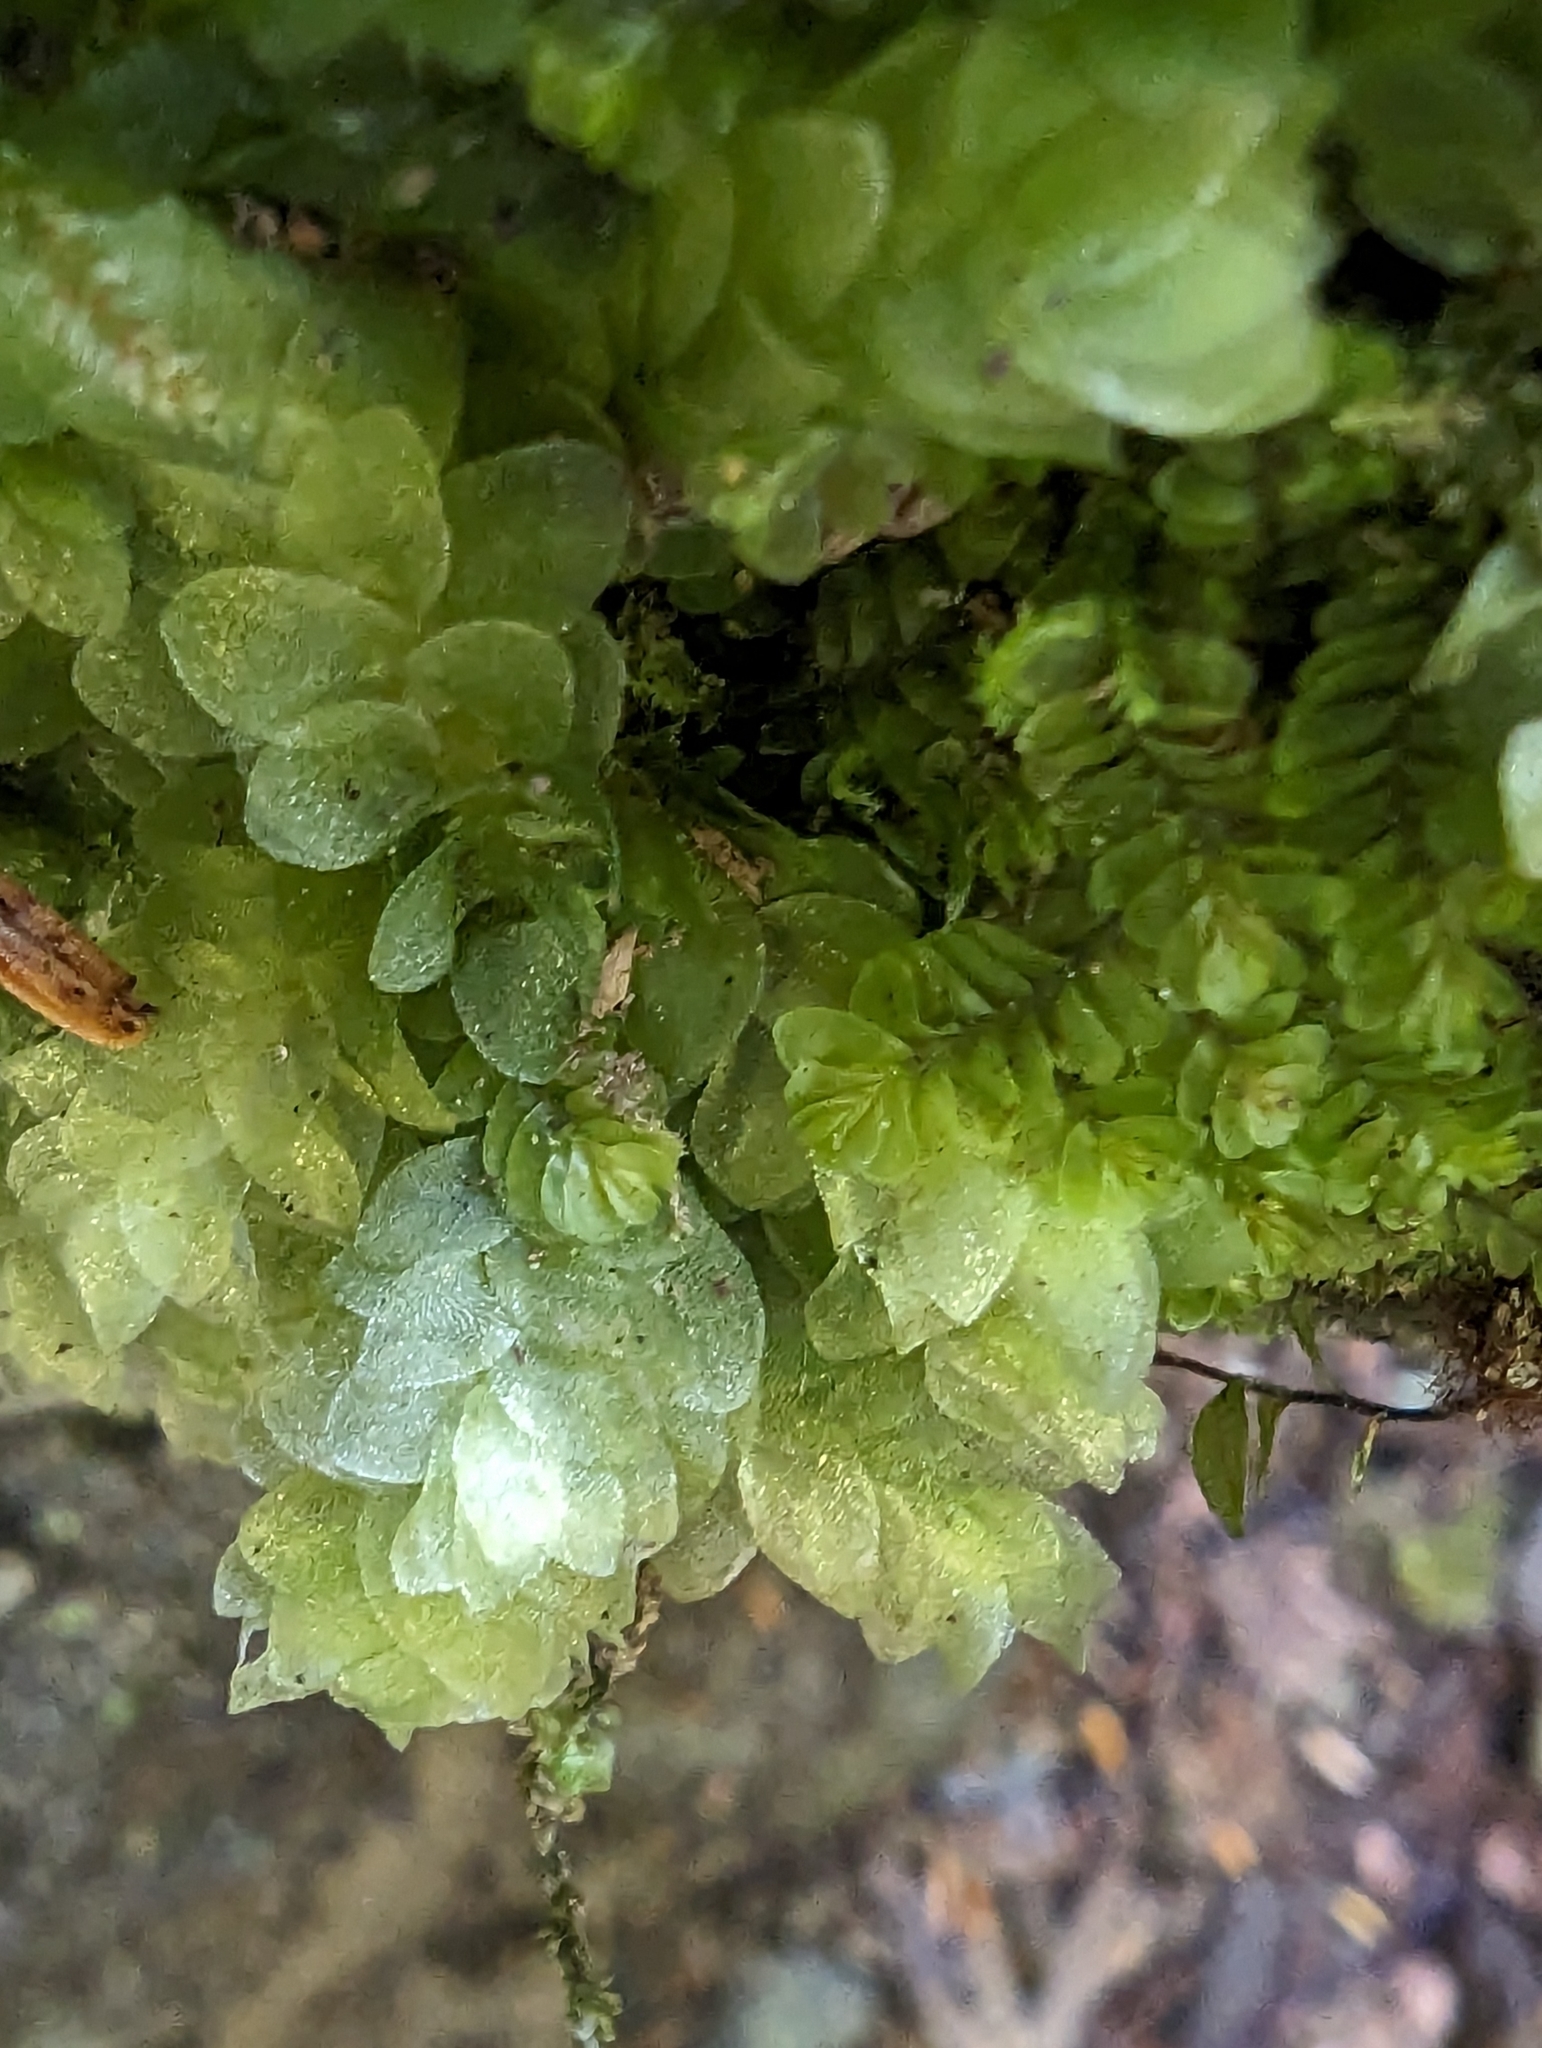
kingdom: Plantae
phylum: Bryophyta
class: Bryopsida
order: Hookeriales
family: Hookeriaceae
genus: Hookeria
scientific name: Hookeria lucens
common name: Shining hookeria
